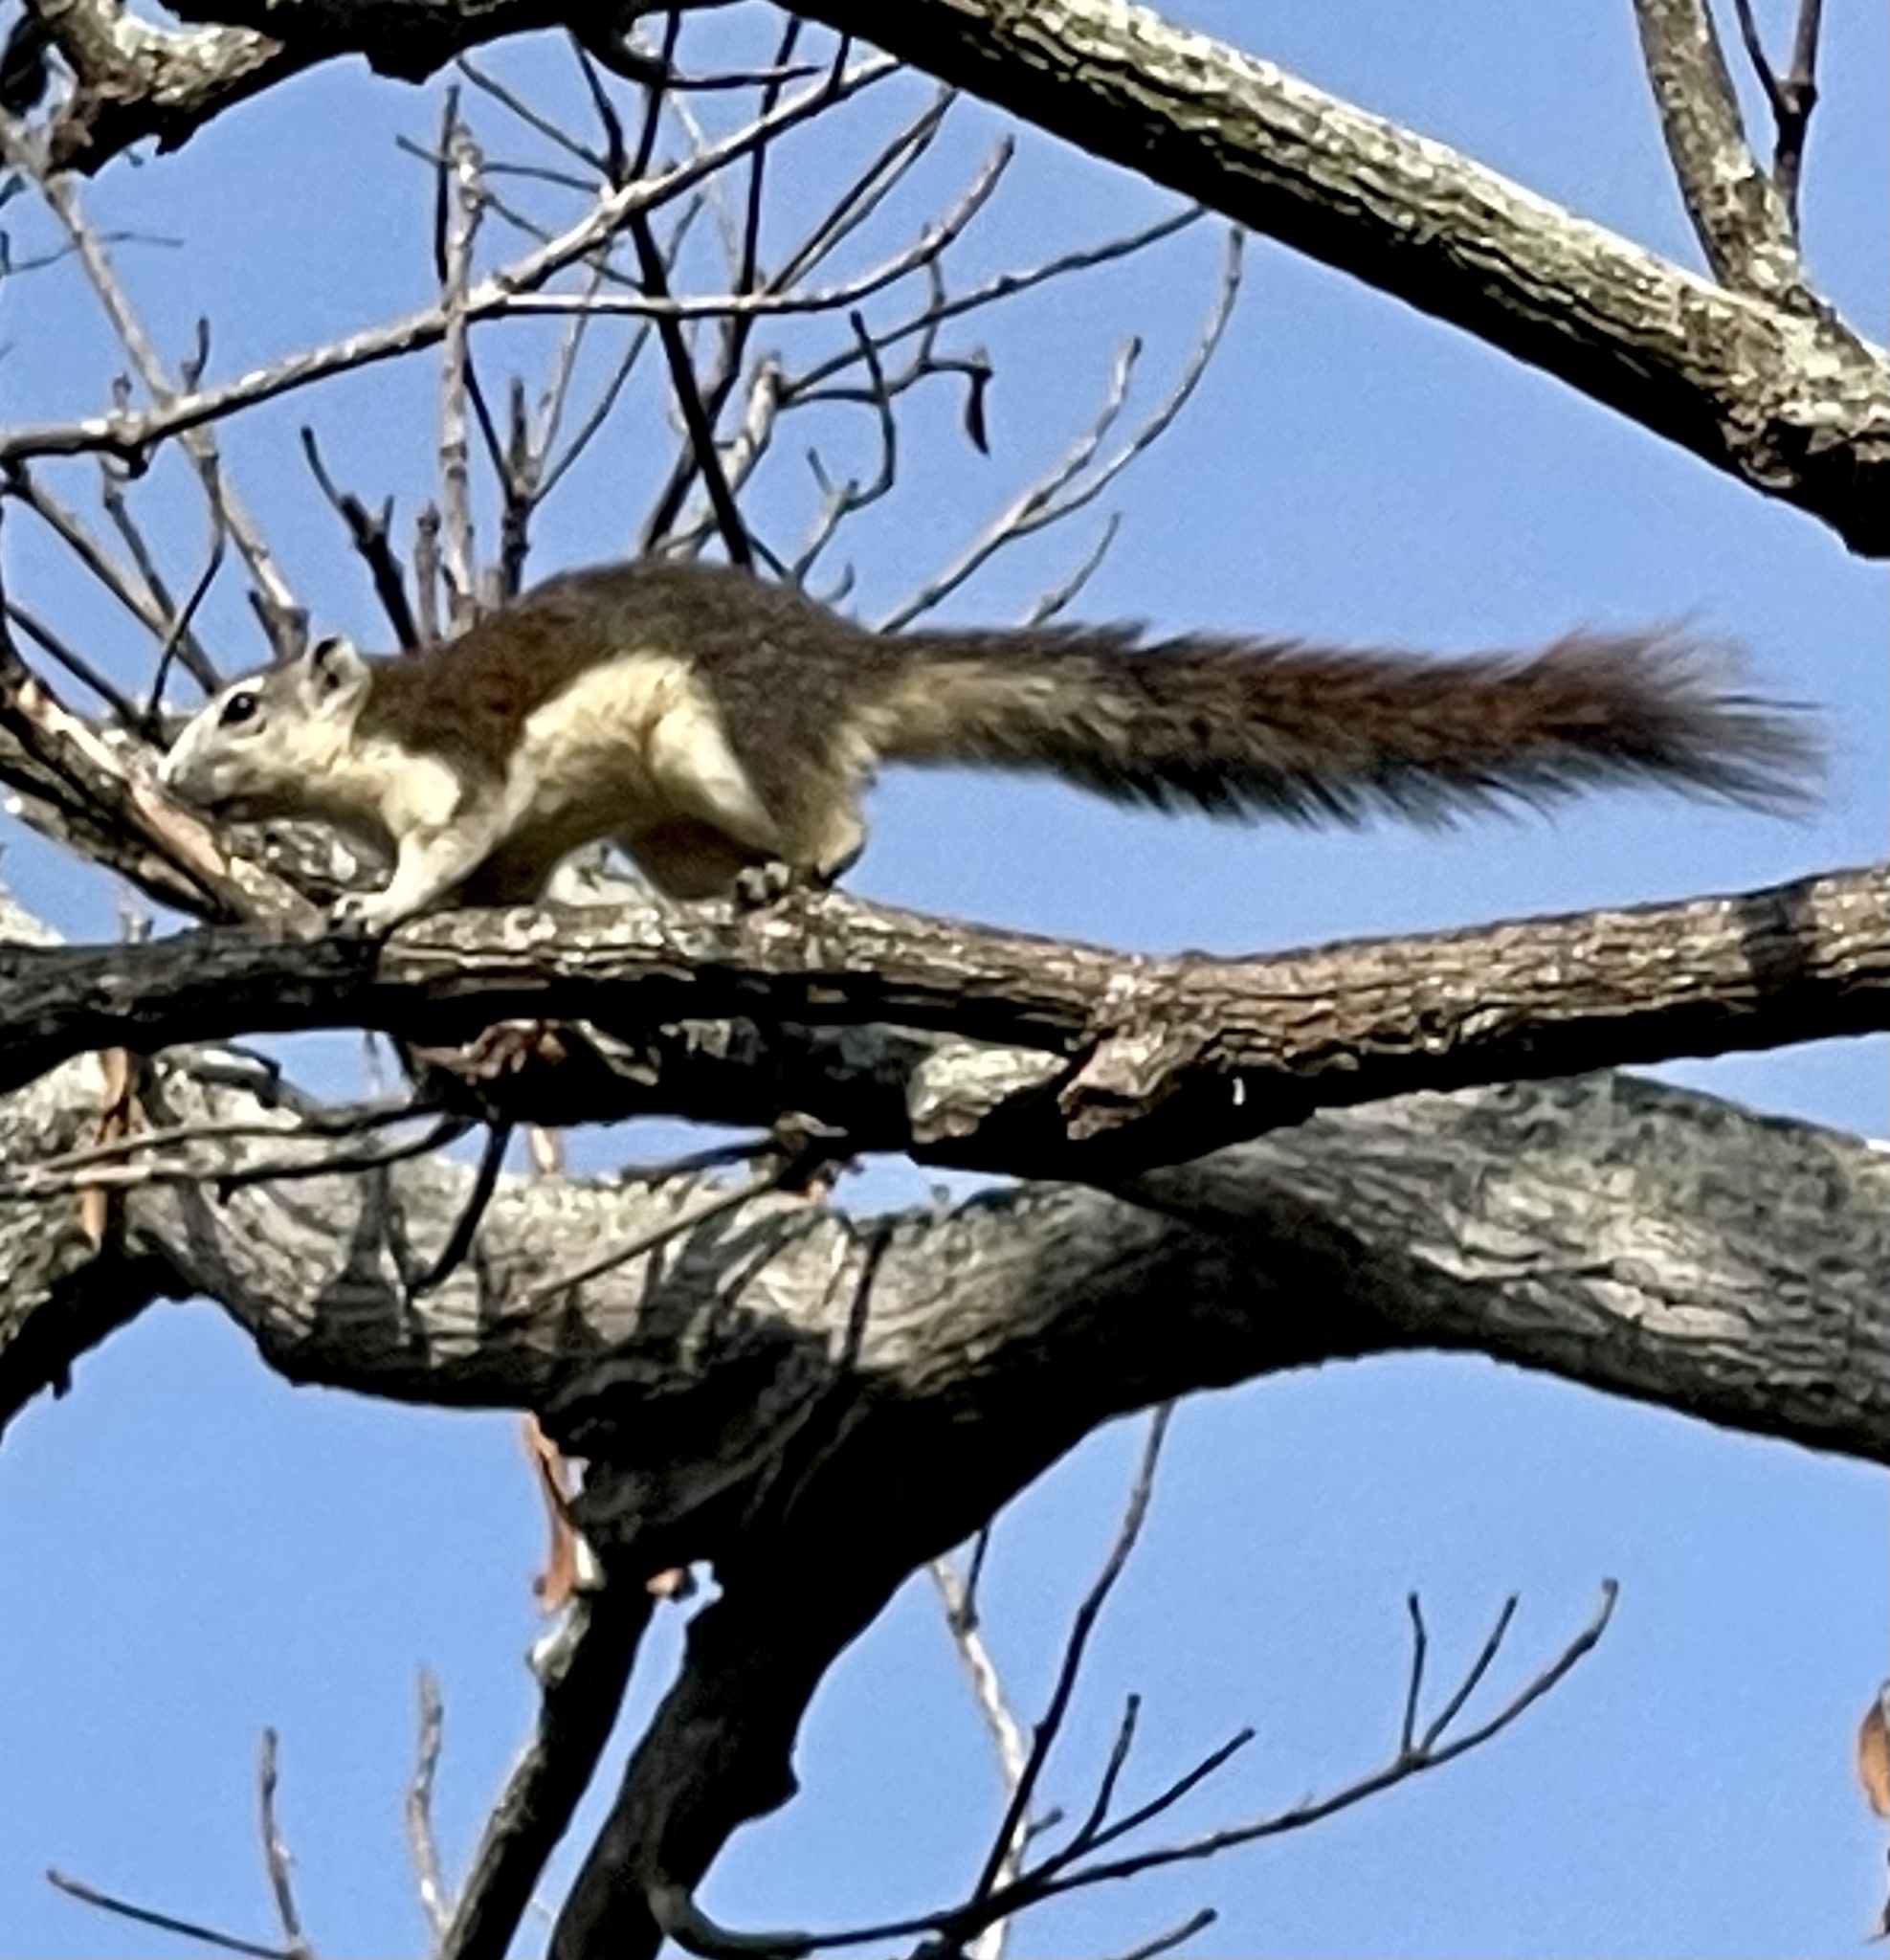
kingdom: Animalia
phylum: Chordata
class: Mammalia
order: Rodentia
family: Sciuridae
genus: Callosciurus
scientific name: Callosciurus finlaysonii
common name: Finlayson's squirrel
